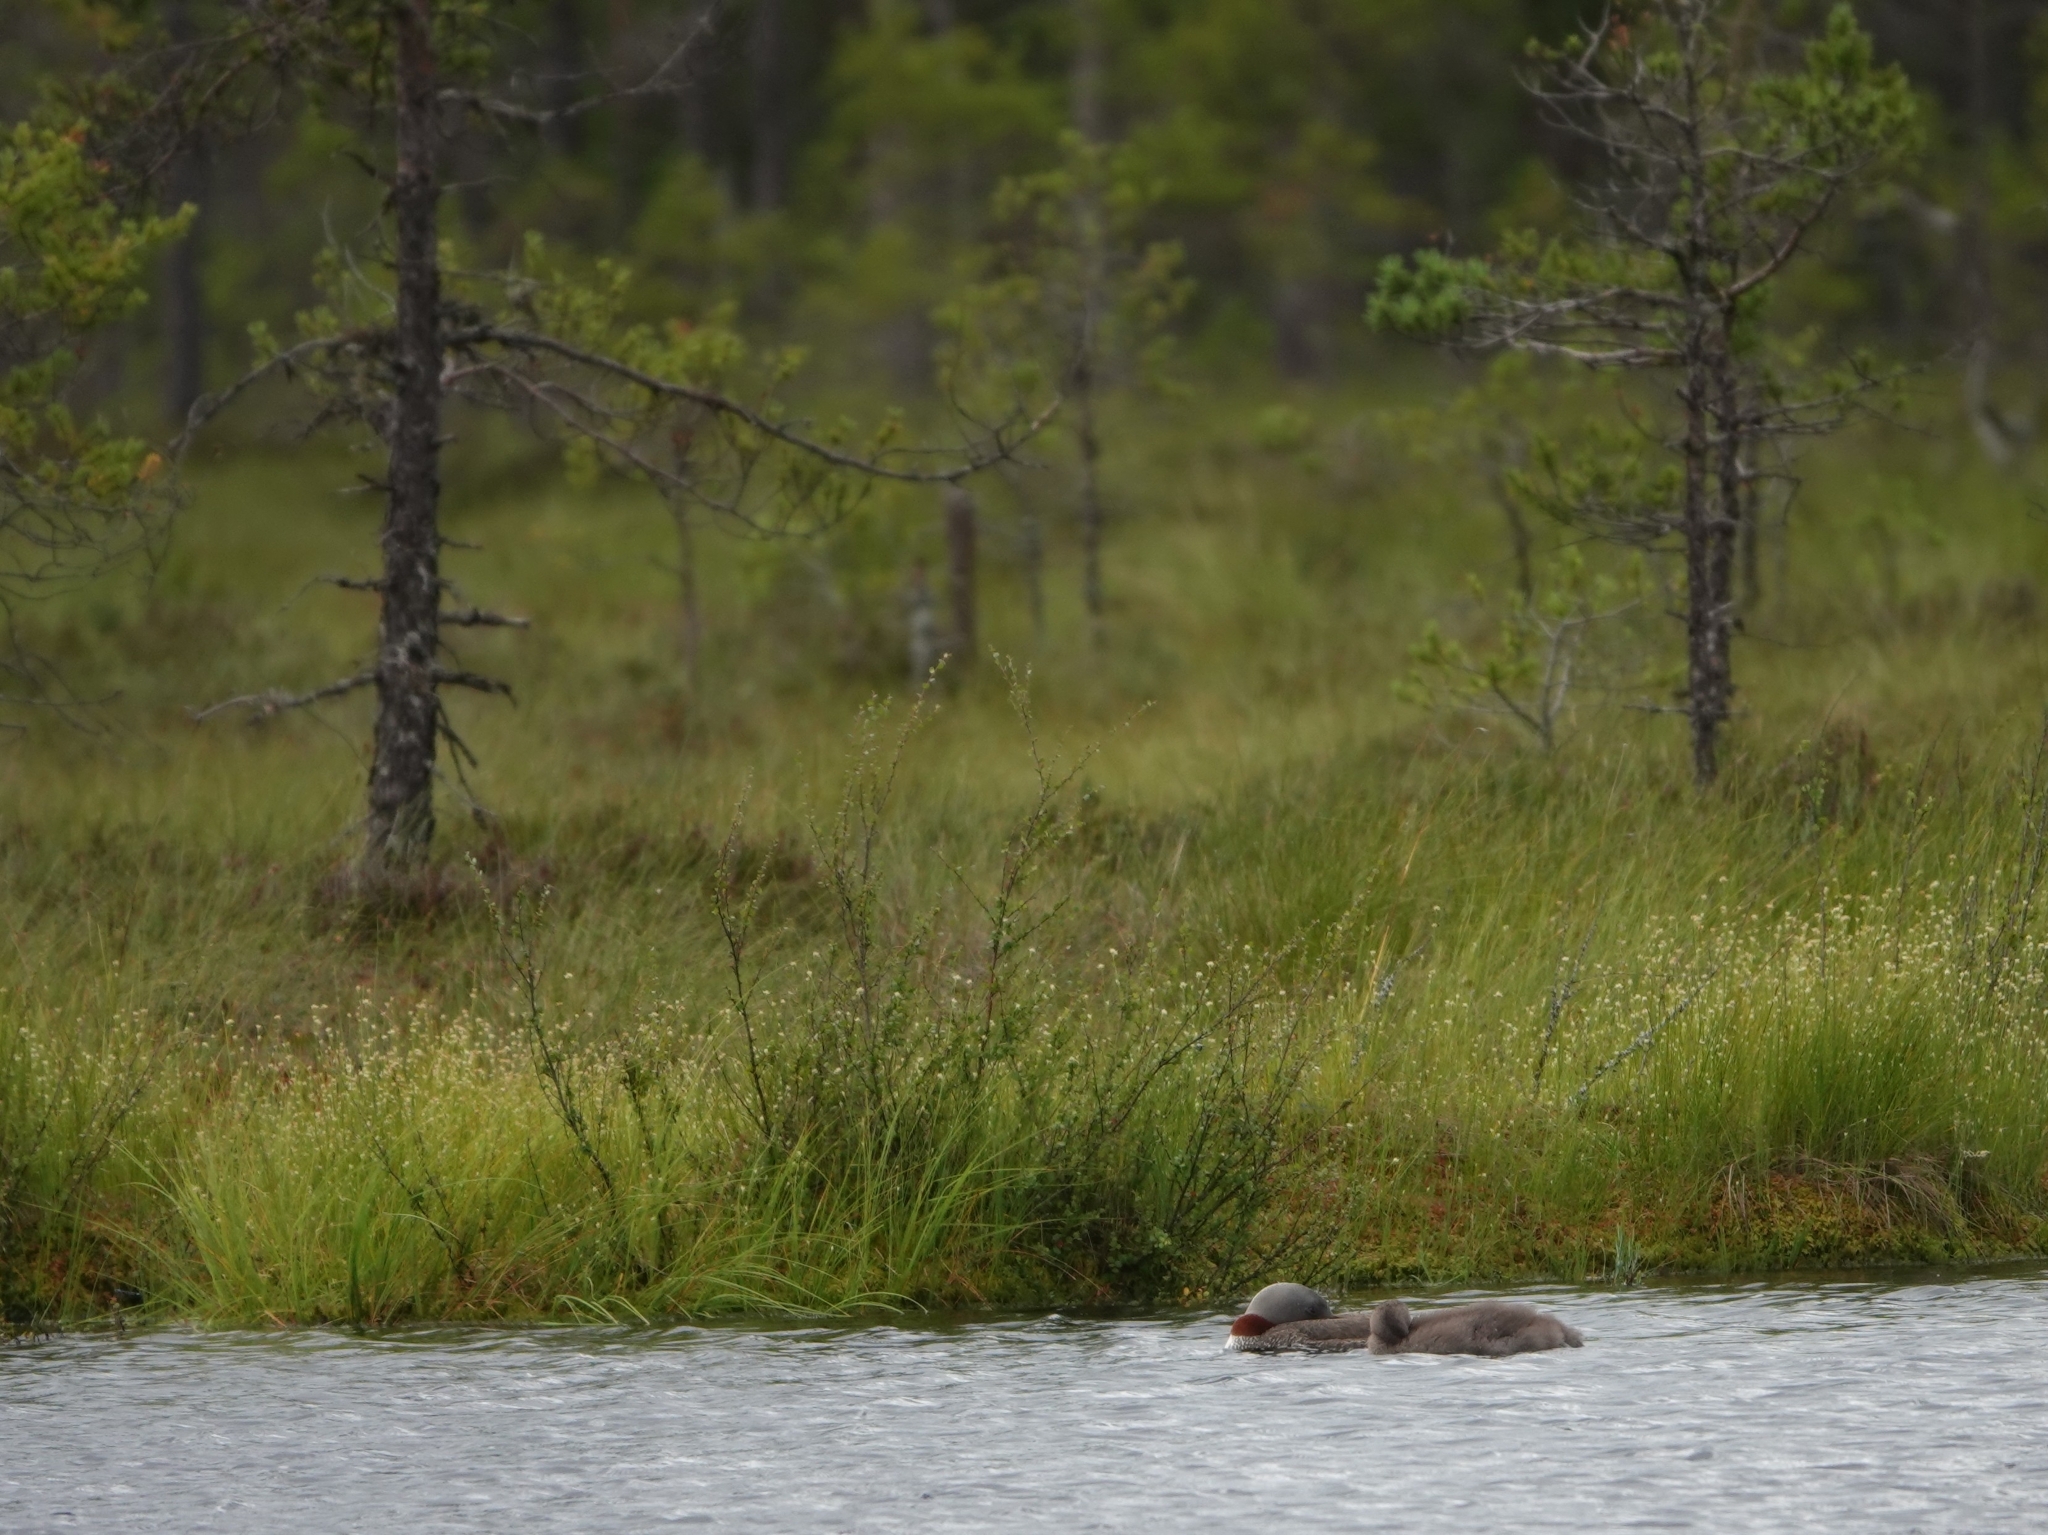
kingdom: Animalia
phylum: Chordata
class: Aves
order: Gaviiformes
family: Gaviidae
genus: Gavia
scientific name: Gavia stellata
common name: Red-throated loon
